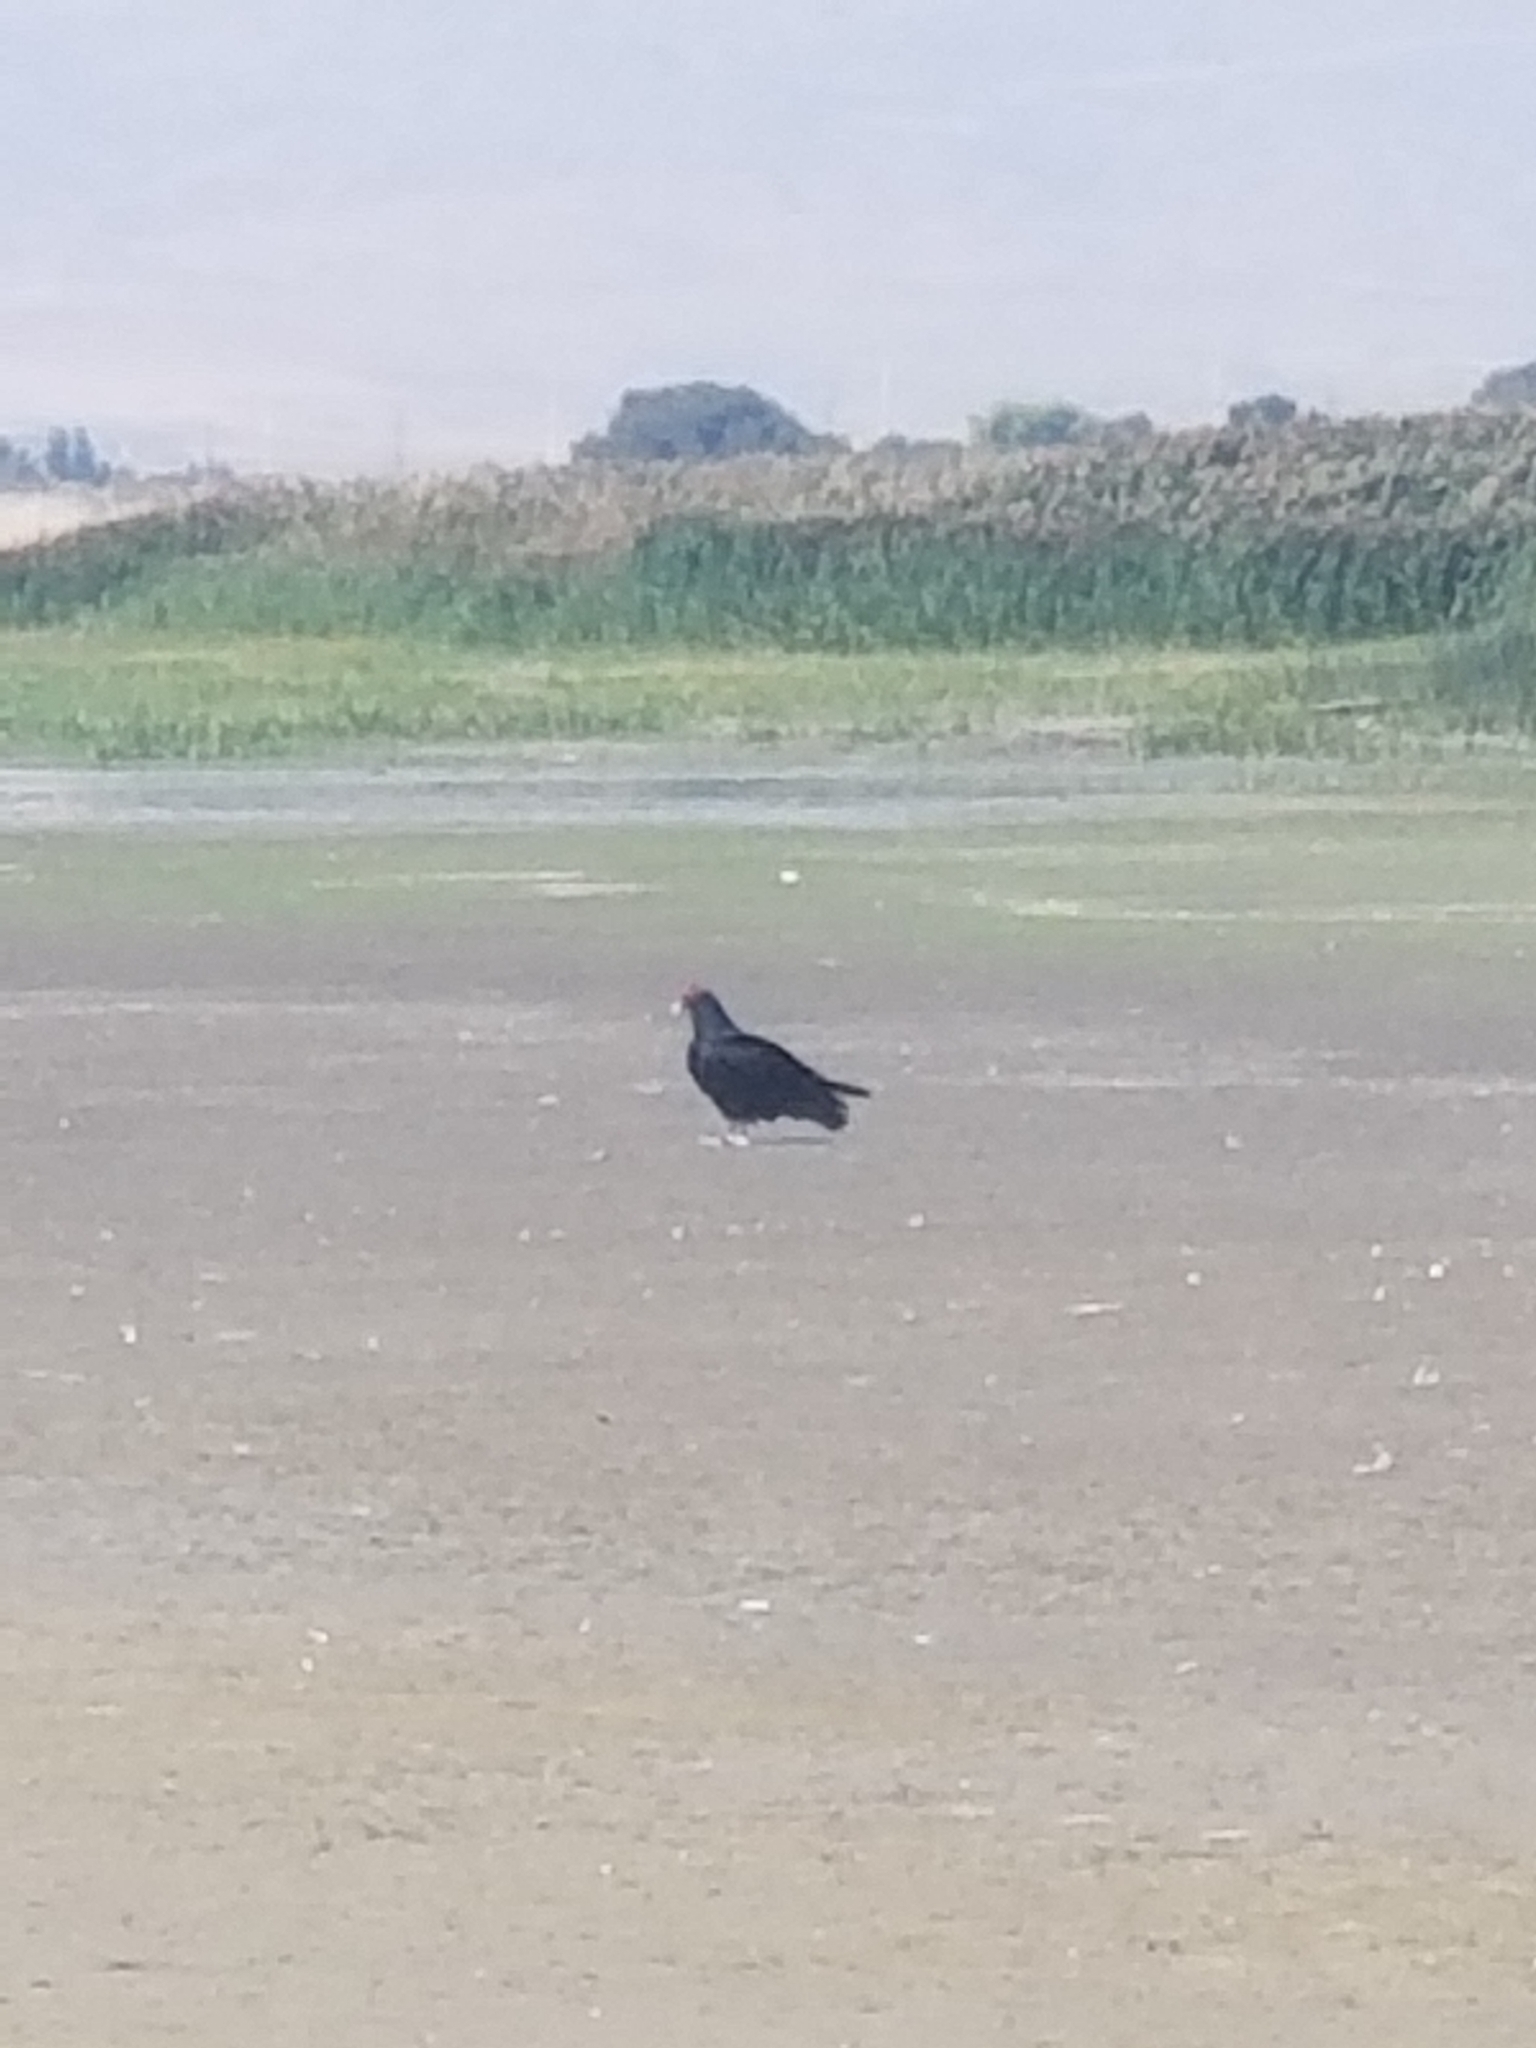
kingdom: Animalia
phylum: Chordata
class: Aves
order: Accipitriformes
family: Cathartidae
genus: Cathartes
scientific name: Cathartes aura
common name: Turkey vulture
